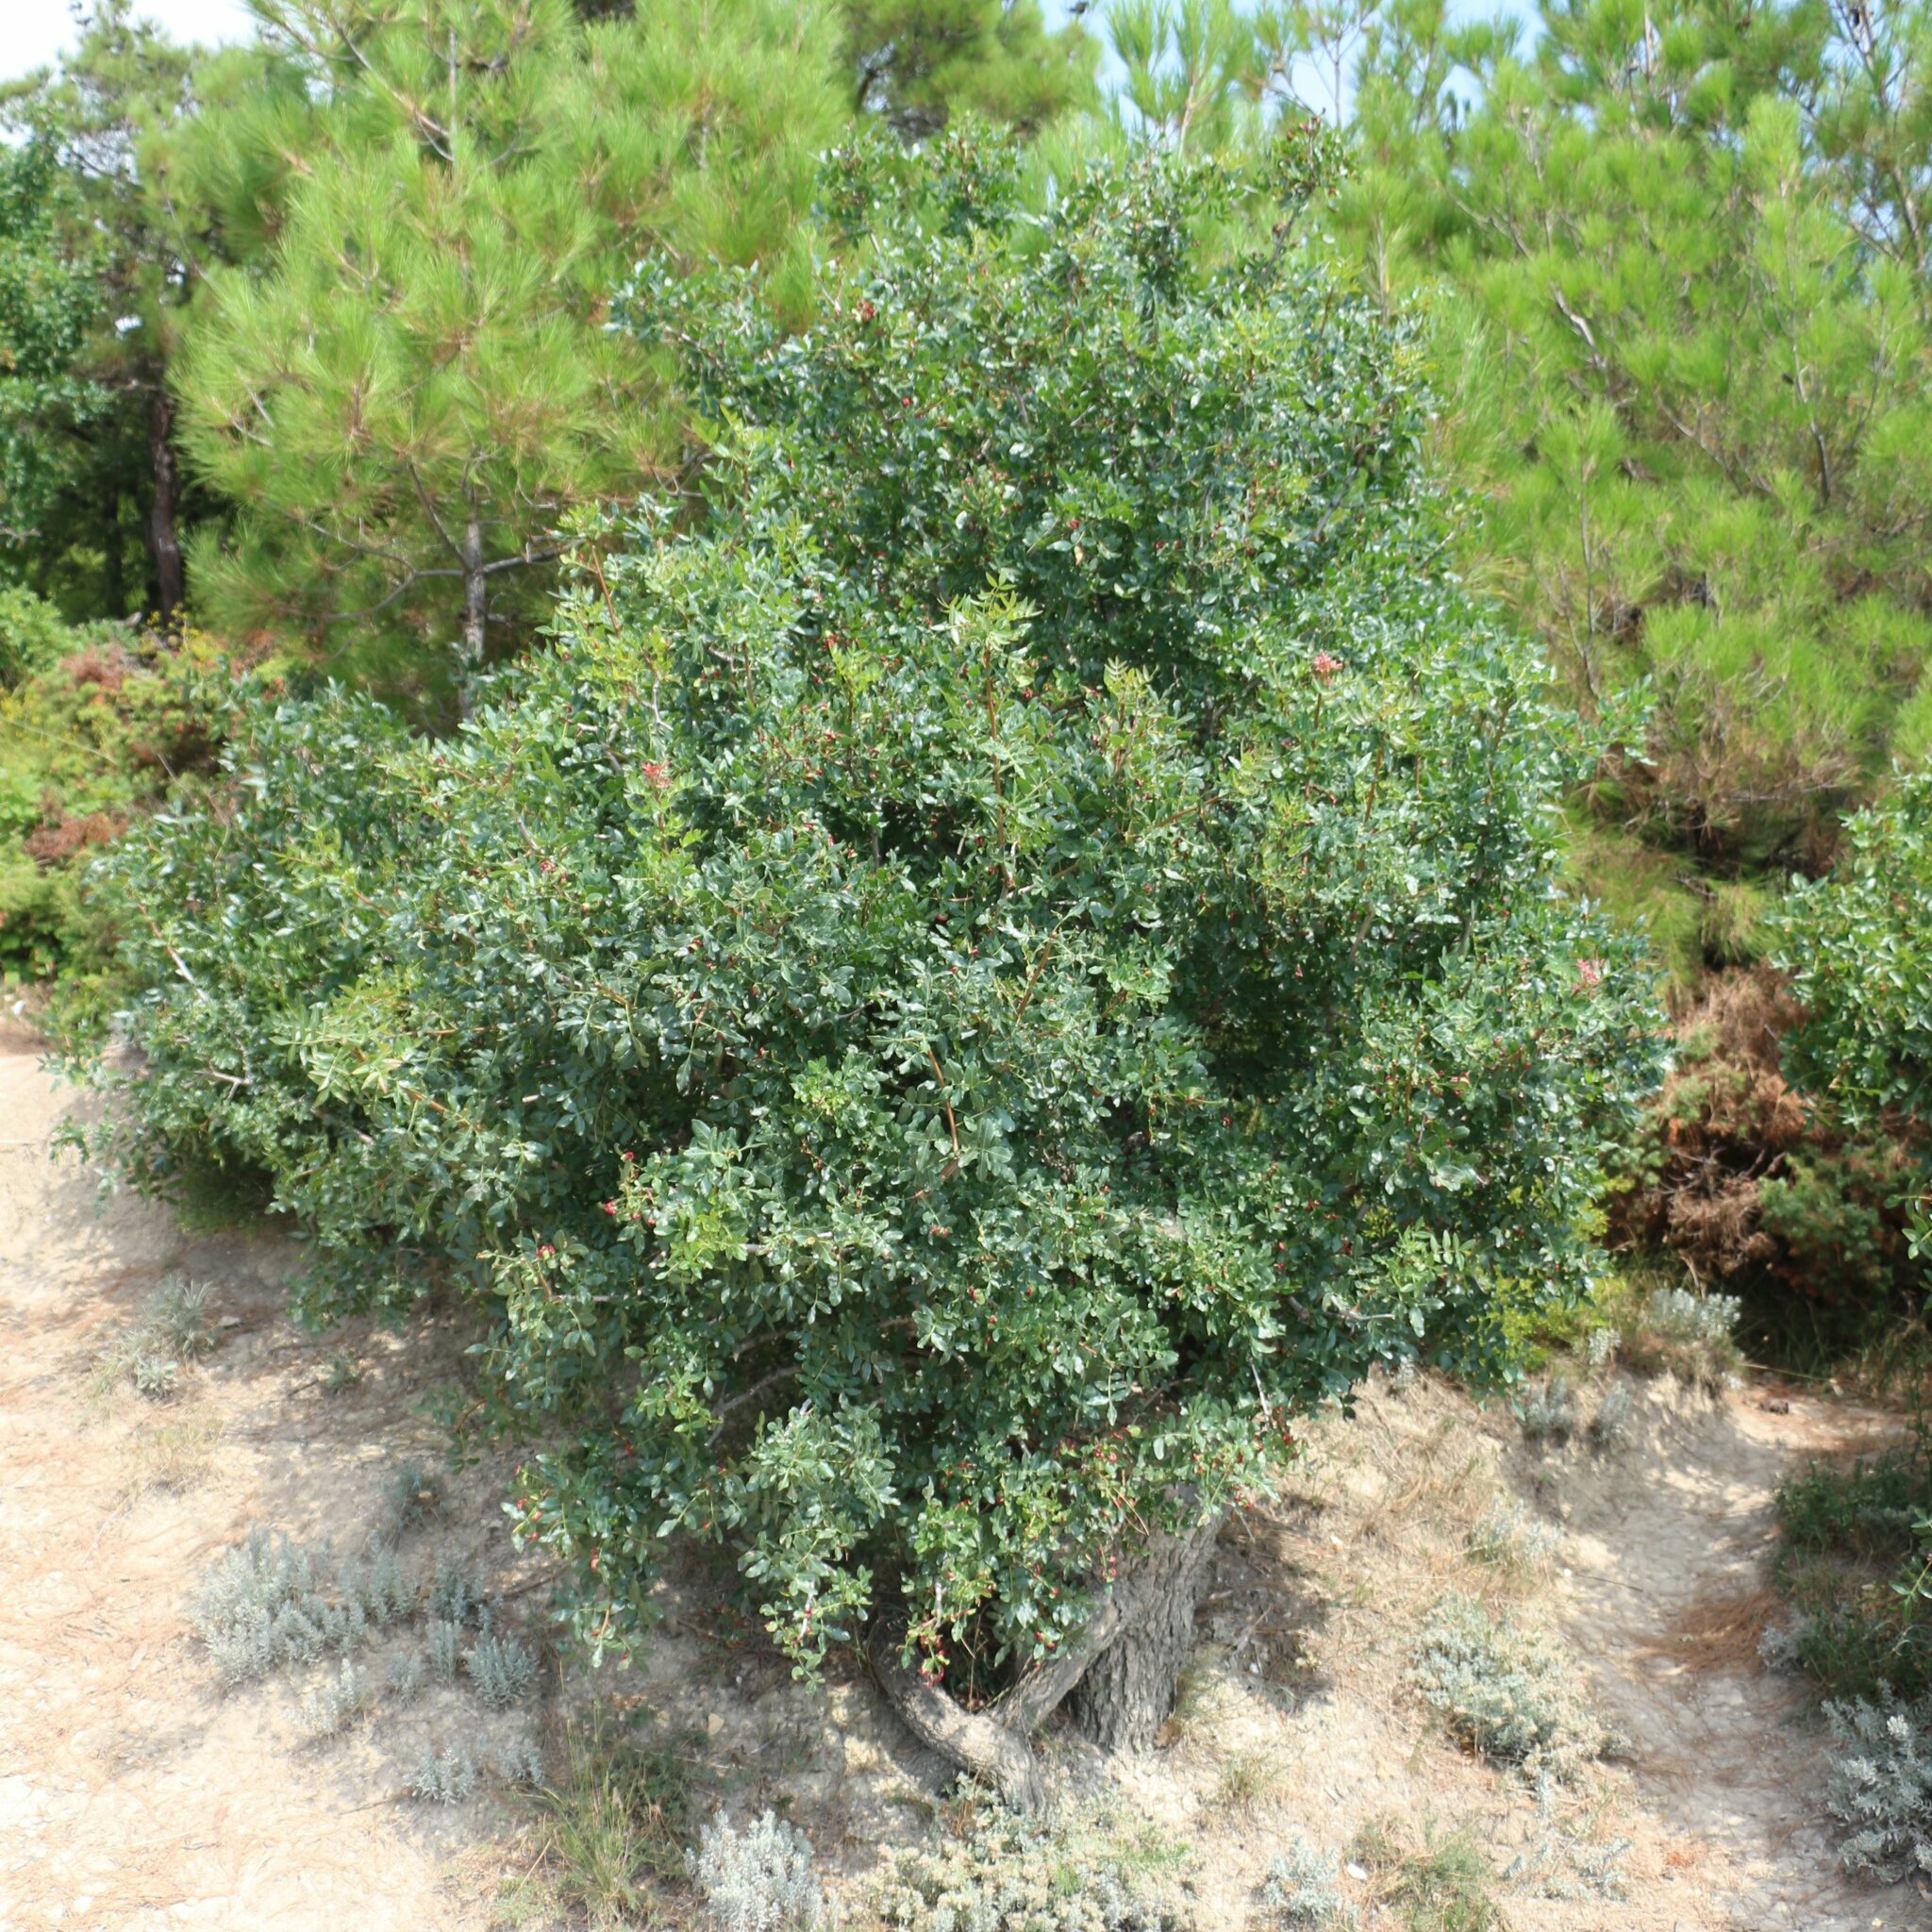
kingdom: Plantae
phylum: Tracheophyta
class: Magnoliopsida
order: Sapindales
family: Anacardiaceae
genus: Pistacia
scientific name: Pistacia atlantica
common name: Mt. atlas mastic tree
